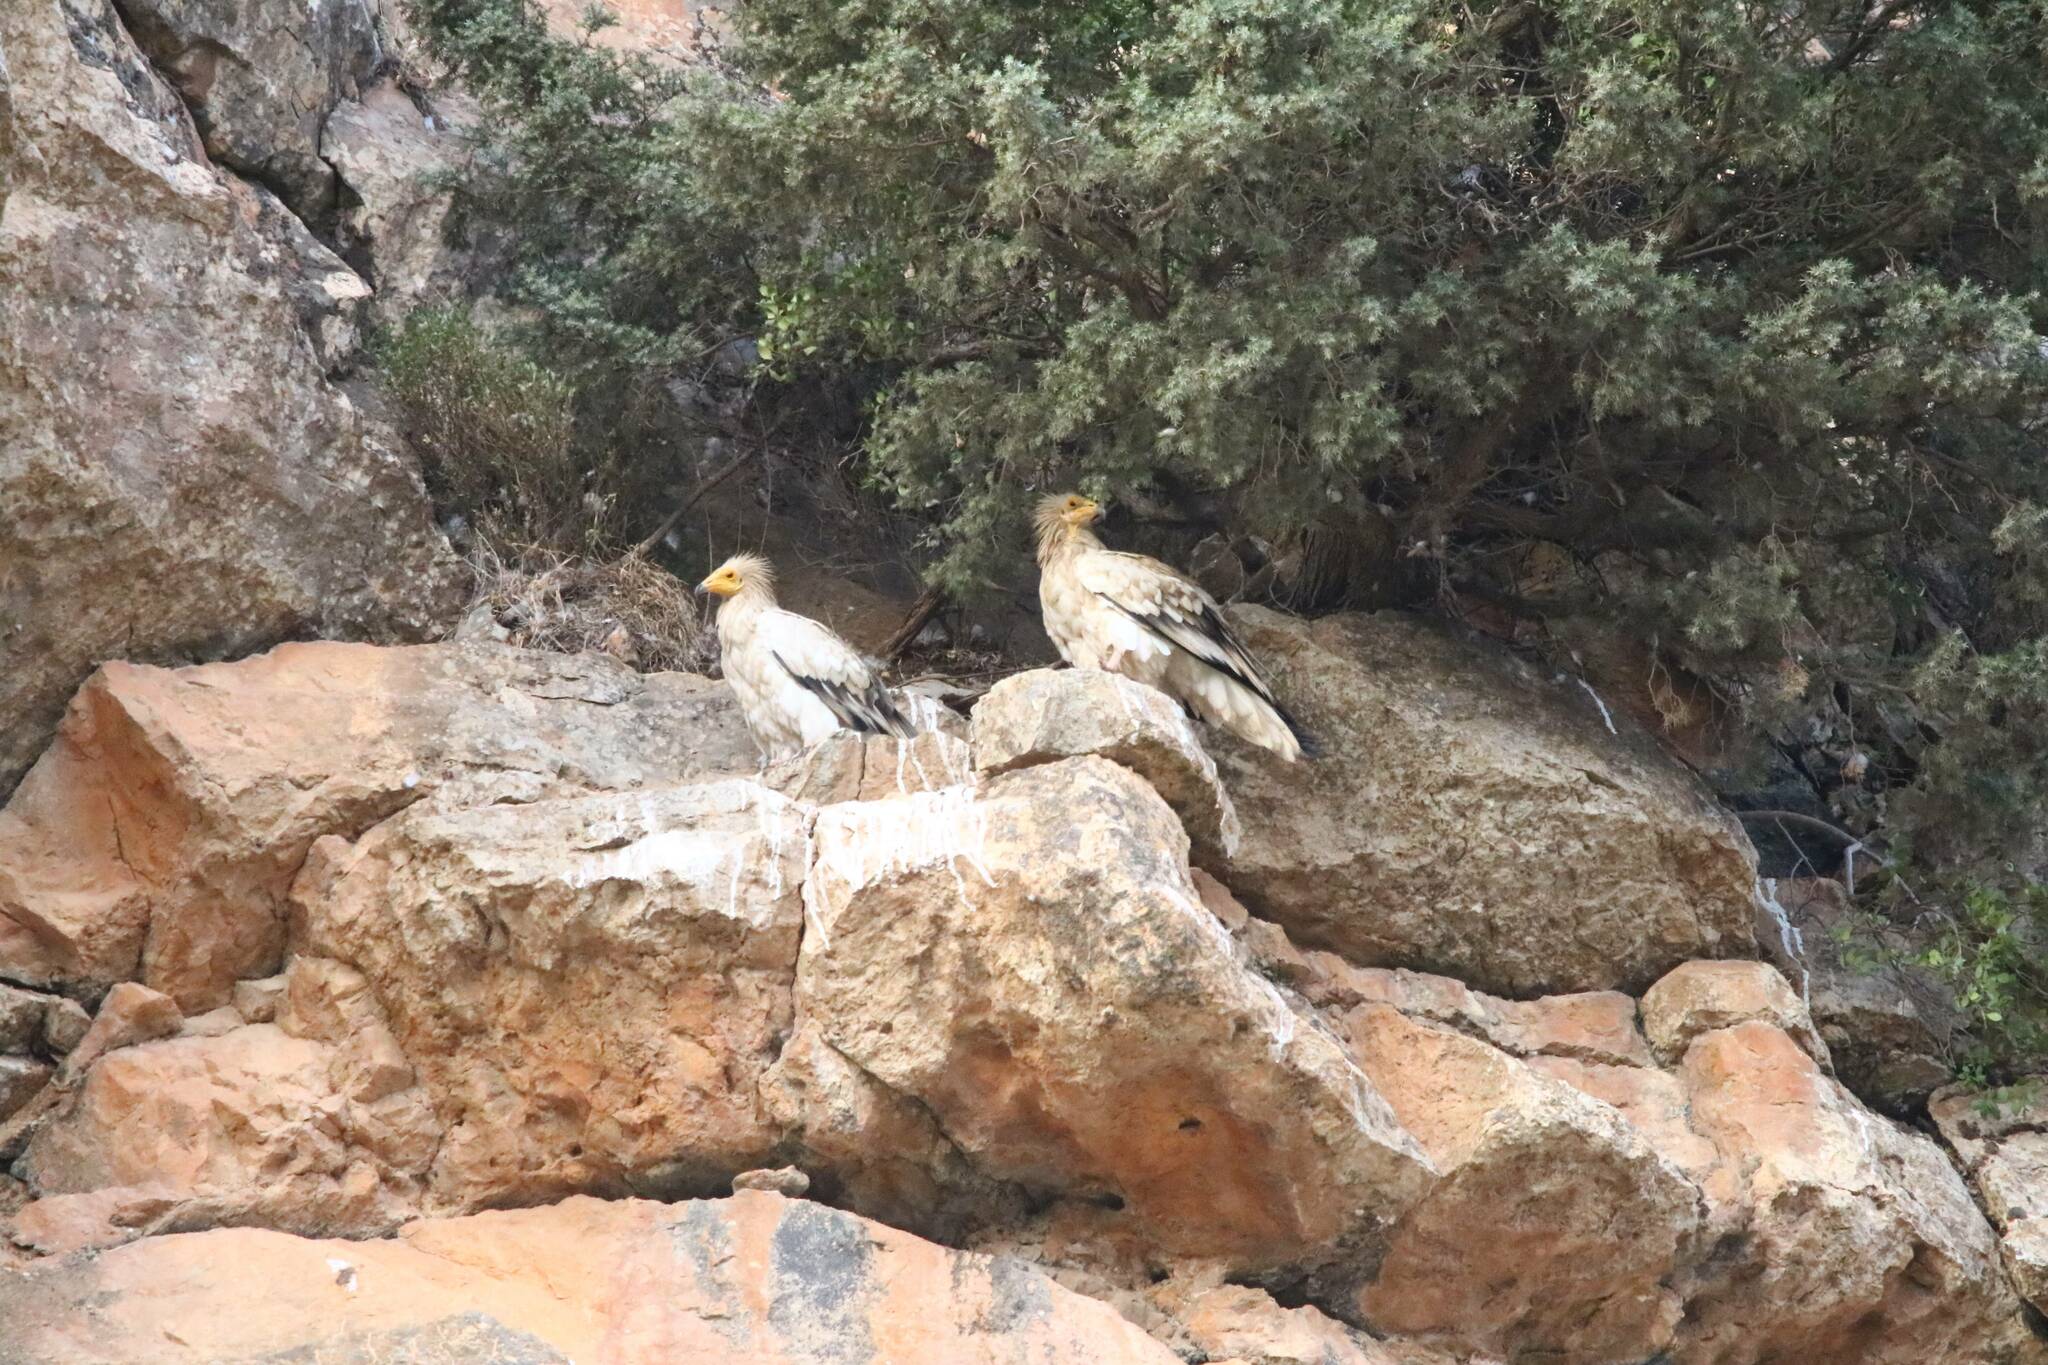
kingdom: Animalia
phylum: Chordata
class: Aves
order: Accipitriformes
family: Accipitridae
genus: Neophron
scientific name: Neophron percnopterus
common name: Egyptian vulture
